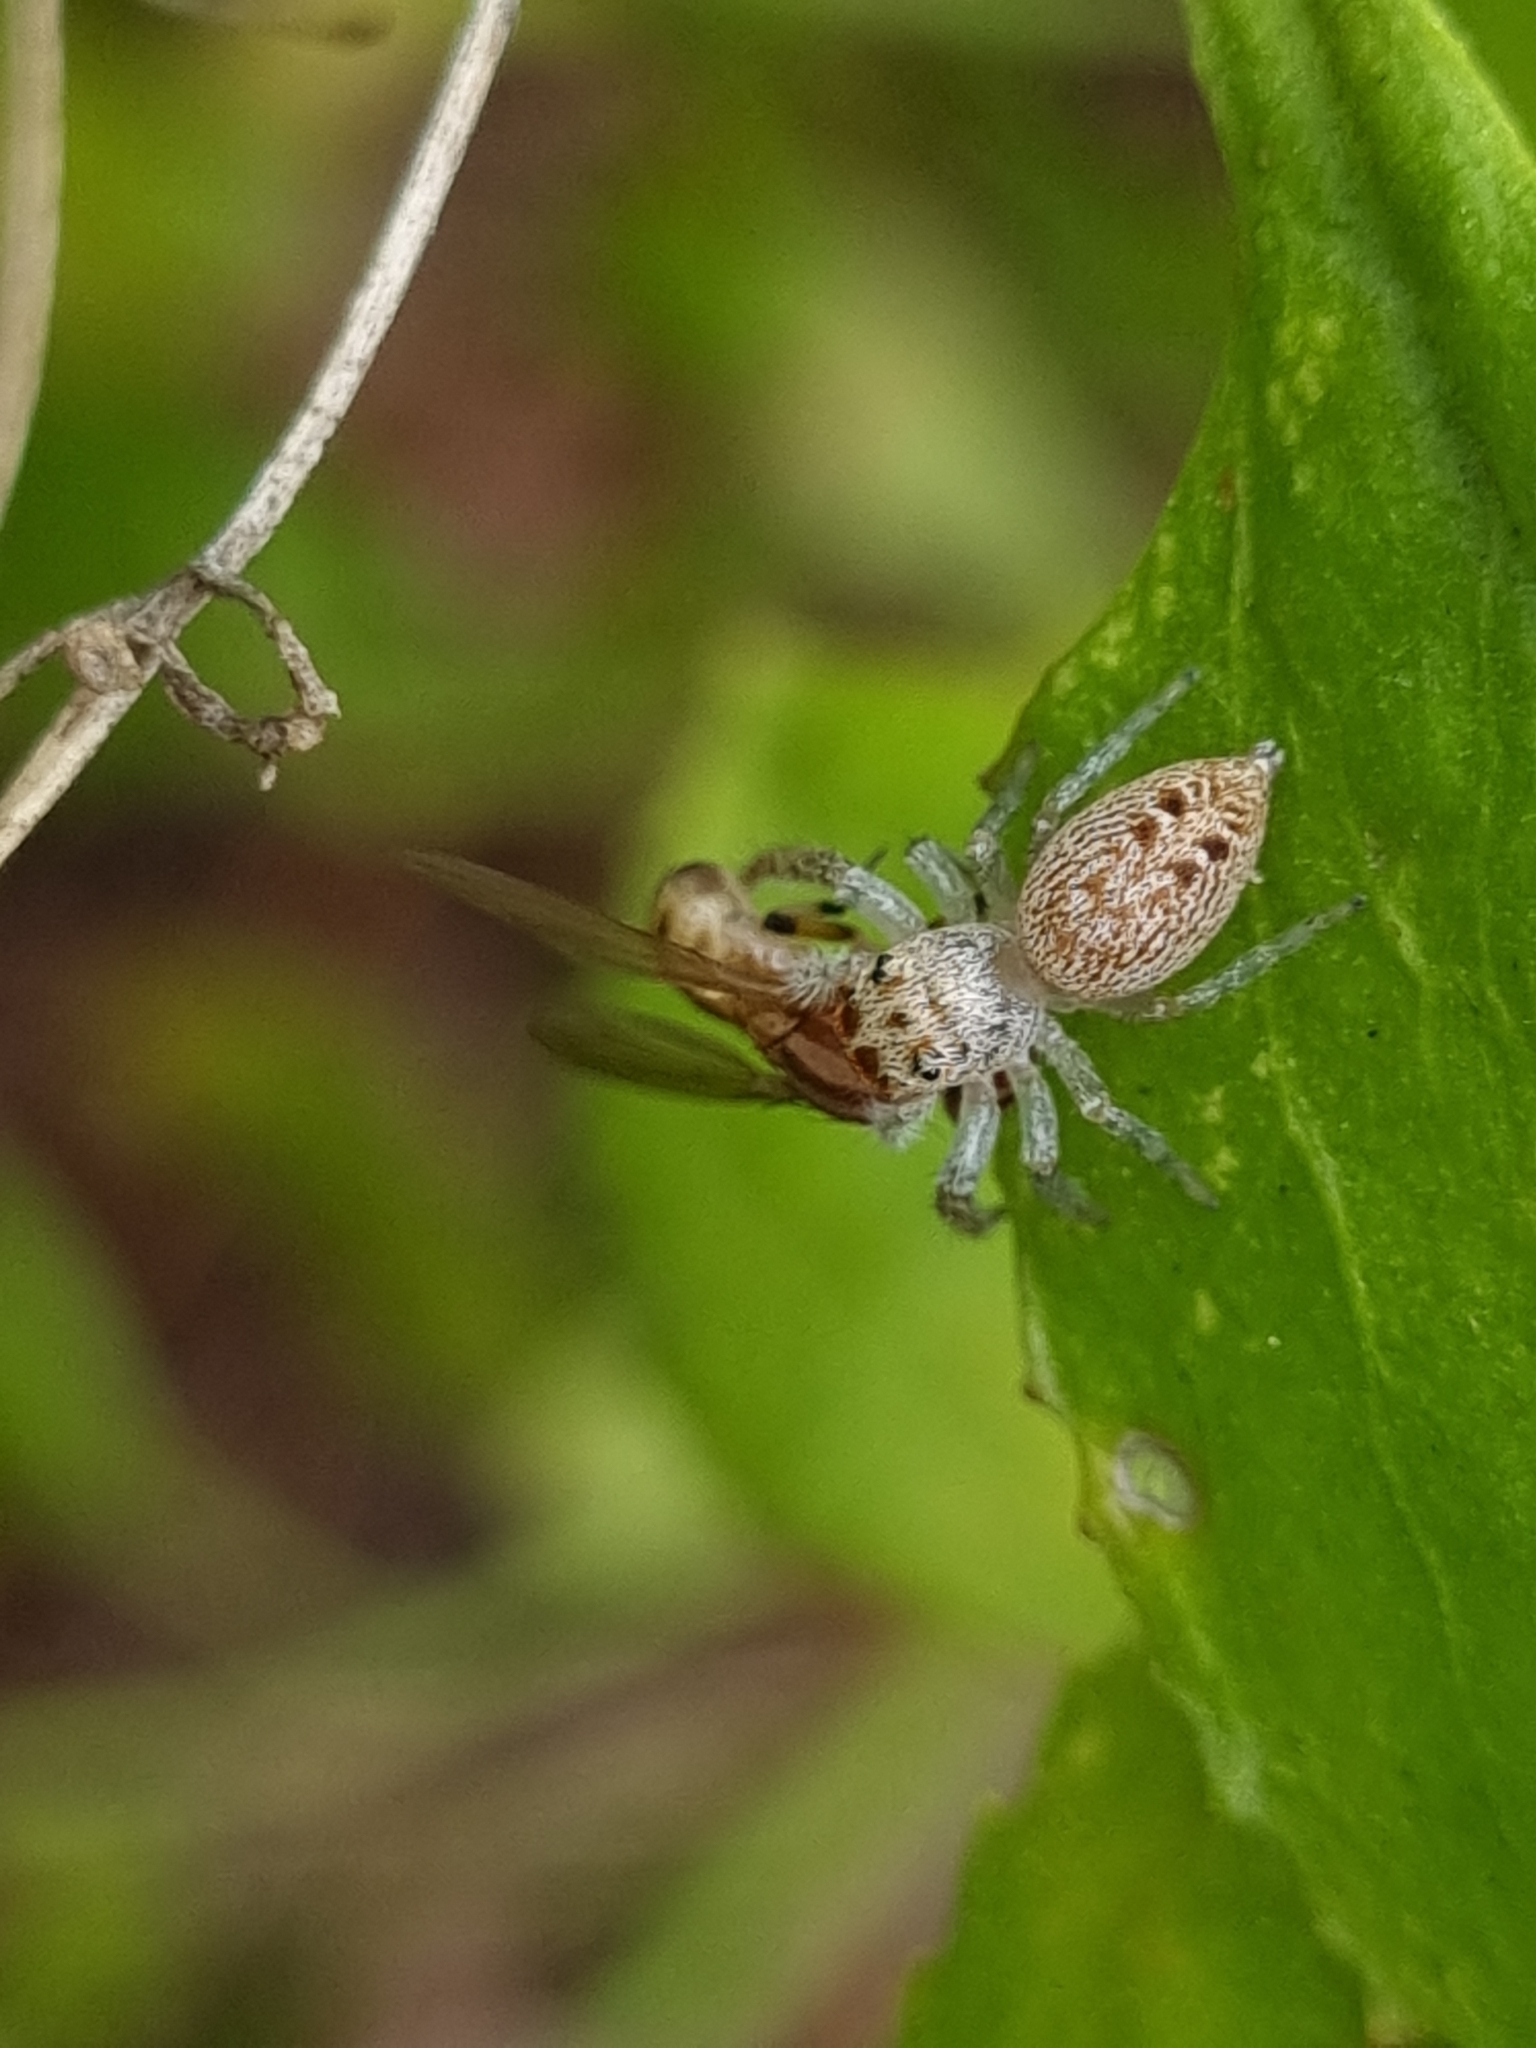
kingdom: Animalia
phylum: Arthropoda
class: Insecta
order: Diptera
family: Lauxaniidae
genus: Sapromyza
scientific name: Sapromyza brunneovittata
